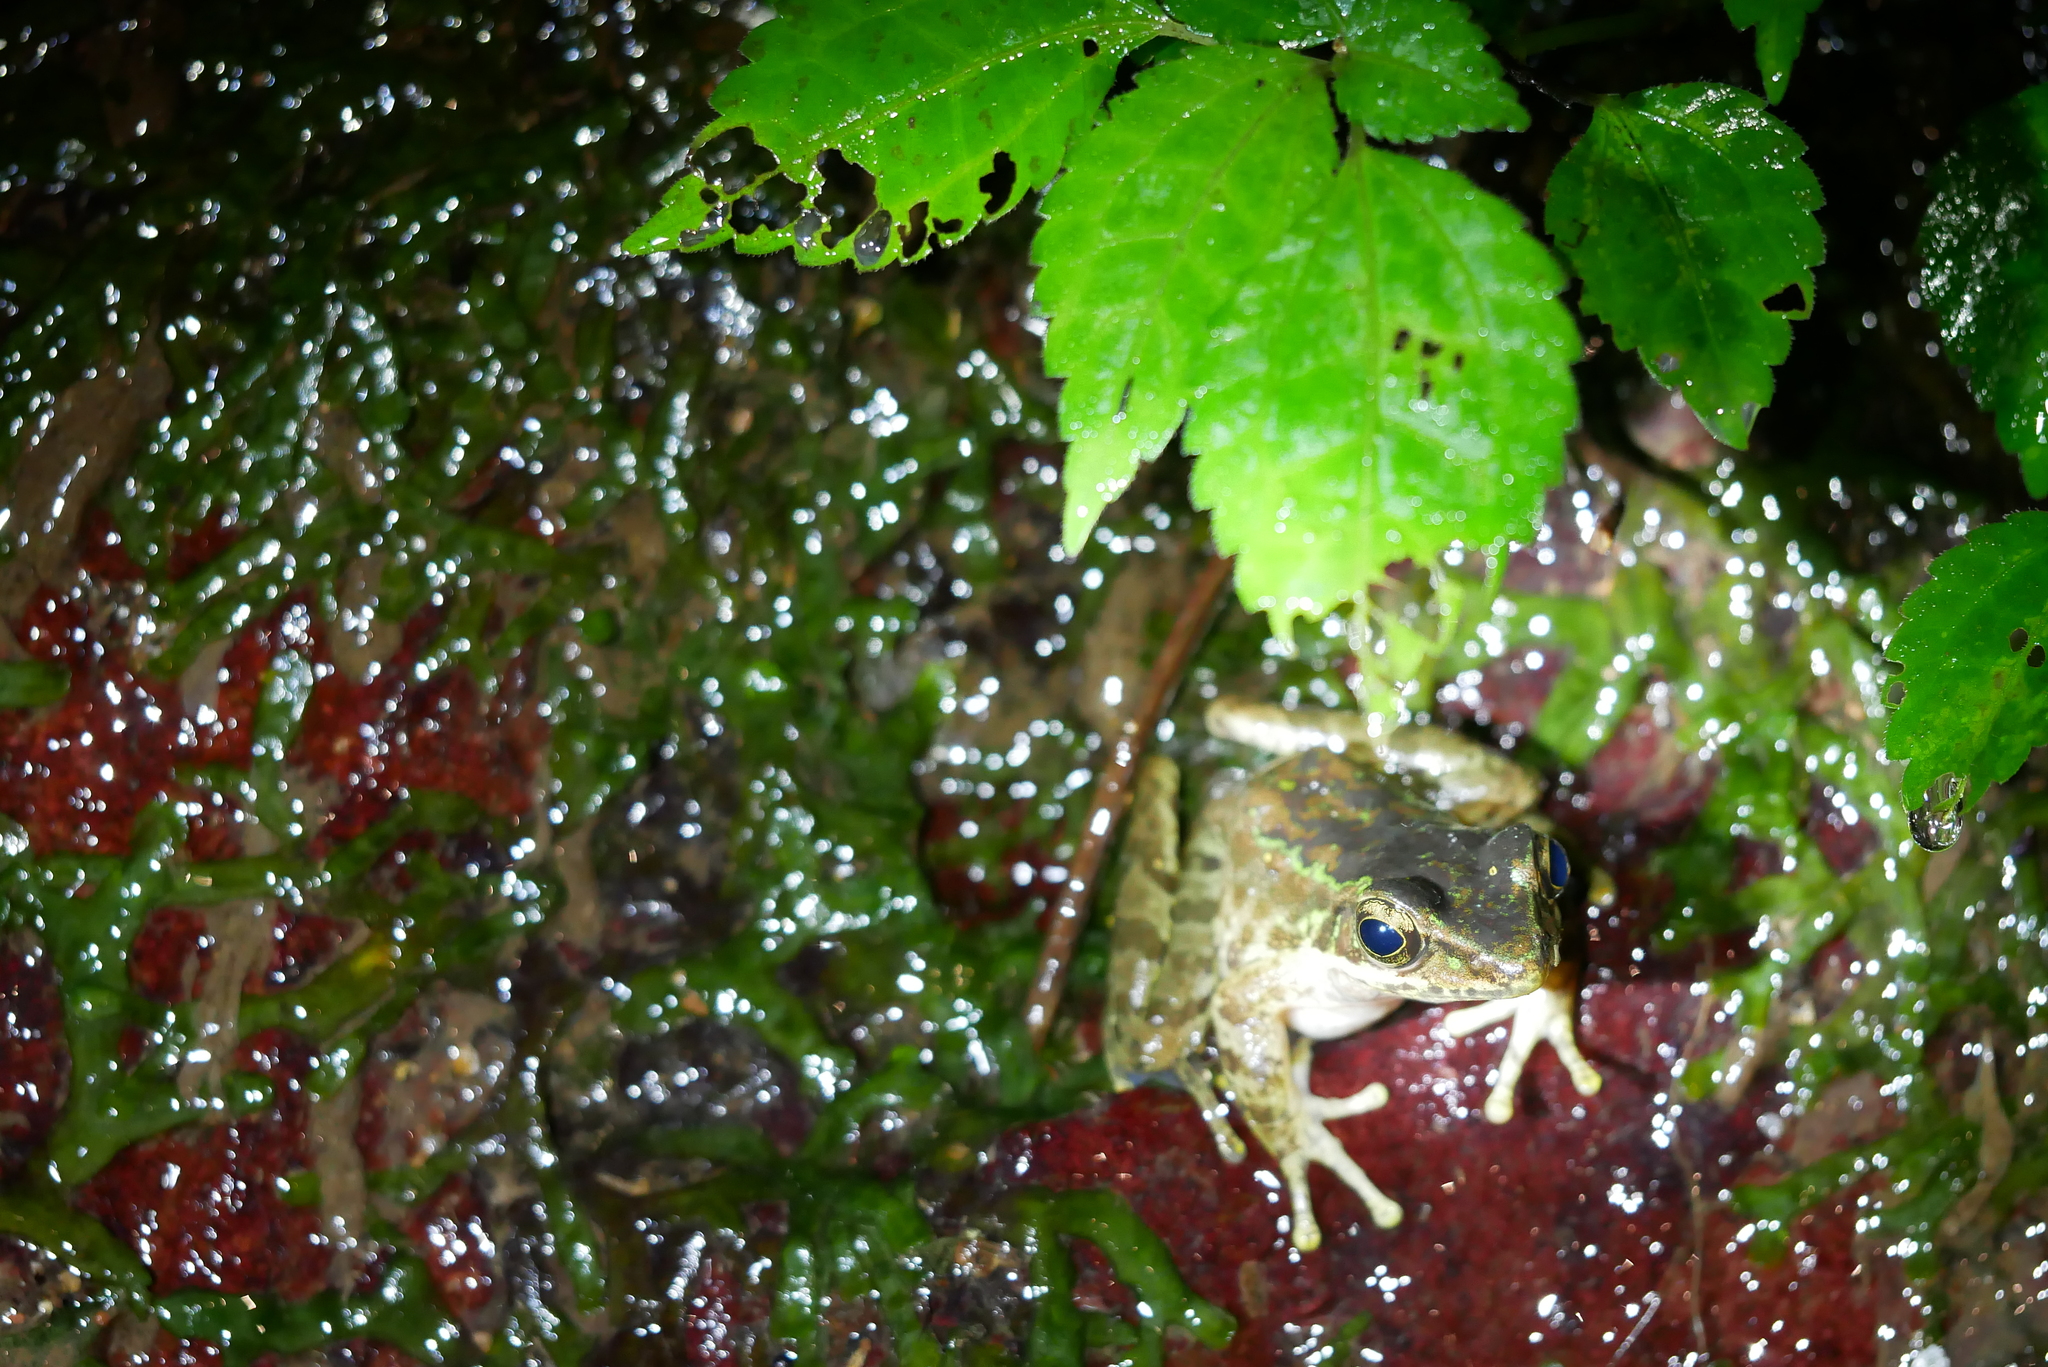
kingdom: Animalia
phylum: Chordata
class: Amphibia
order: Anura
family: Ranidae
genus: Odorrana
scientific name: Odorrana swinhoana
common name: Bangkimtsing frog
